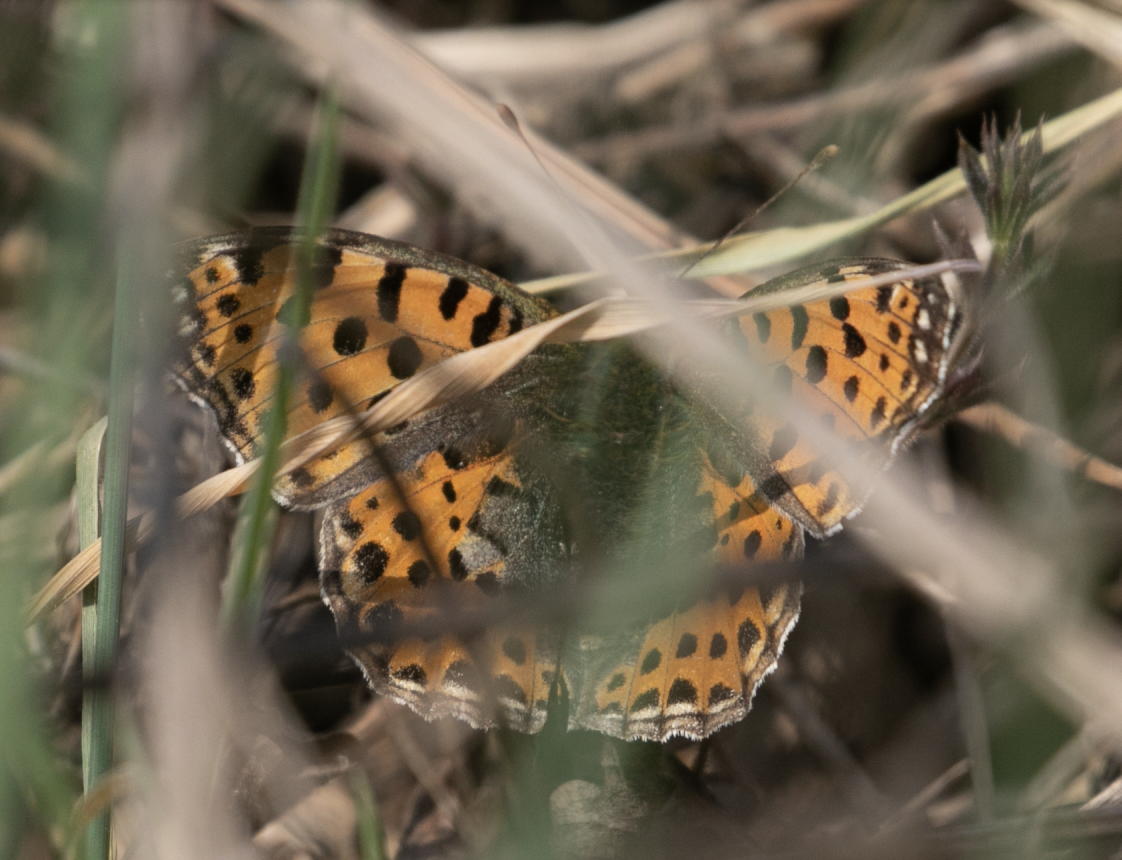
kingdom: Animalia
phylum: Arthropoda
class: Insecta
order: Lepidoptera
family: Nymphalidae
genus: Issoria
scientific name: Issoria lathonia
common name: Queen of spain fritillary
